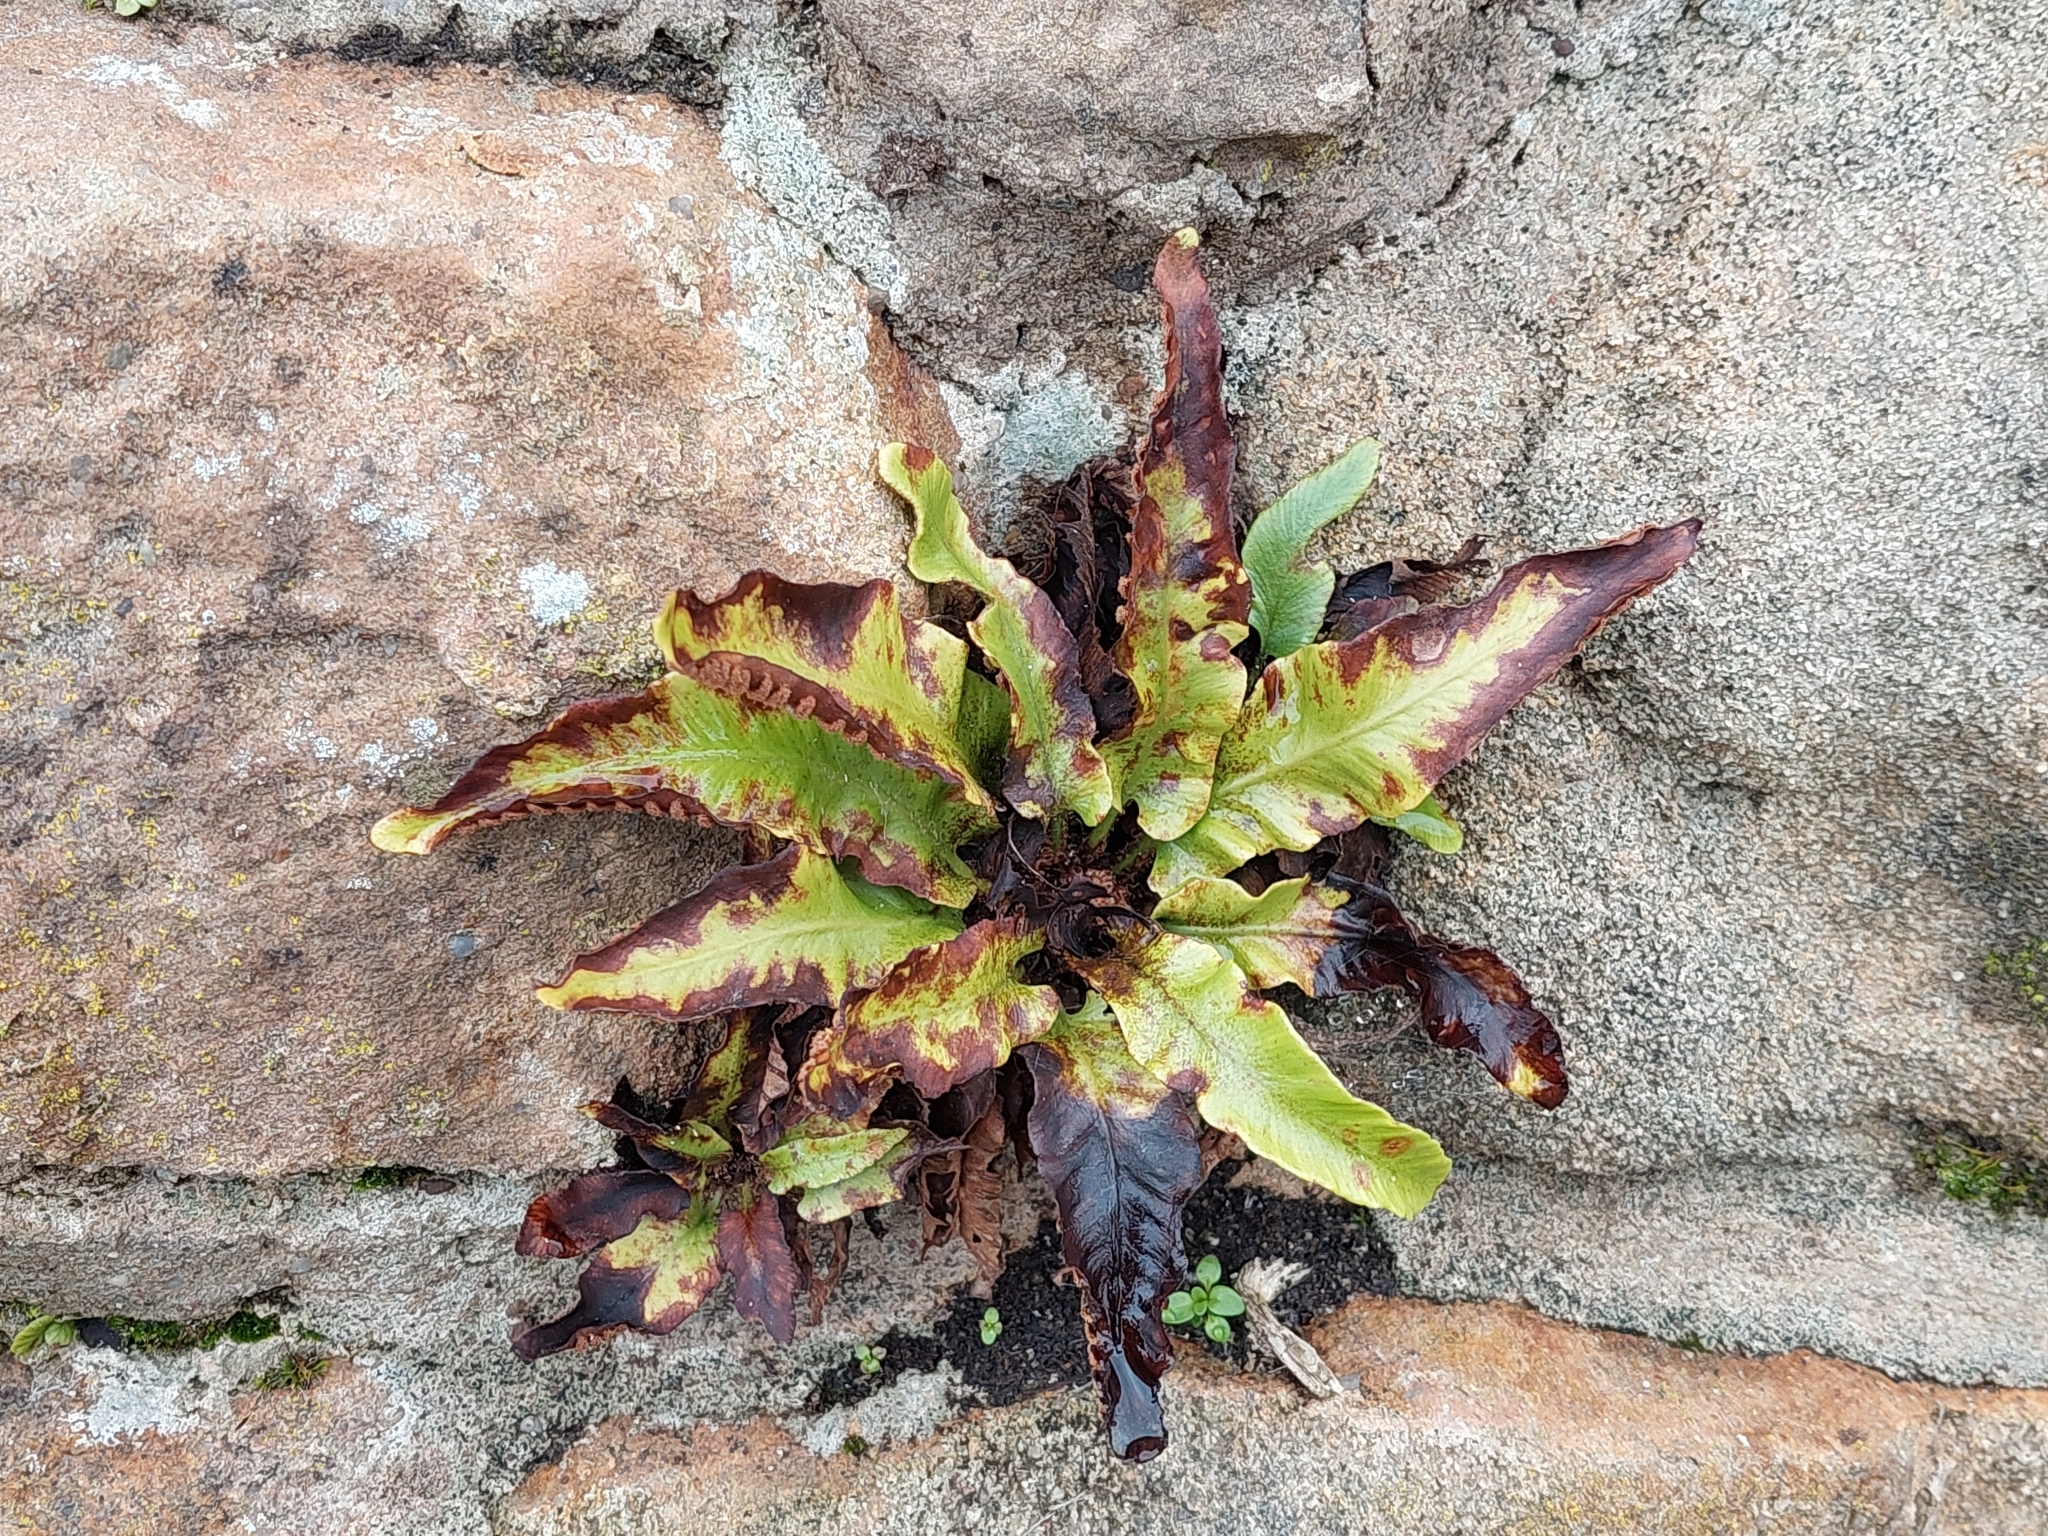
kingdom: Plantae
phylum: Tracheophyta
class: Polypodiopsida
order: Polypodiales
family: Aspleniaceae
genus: Asplenium
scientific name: Asplenium scolopendrium
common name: Hart's-tongue fern
